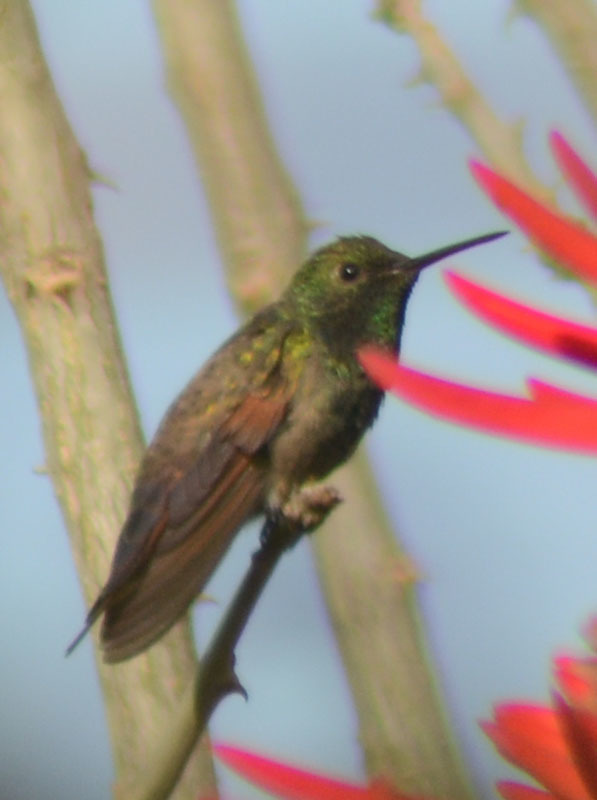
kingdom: Animalia
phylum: Chordata
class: Aves
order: Apodiformes
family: Trochilidae
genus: Saucerottia
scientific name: Saucerottia beryllina
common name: Berylline hummingbird
